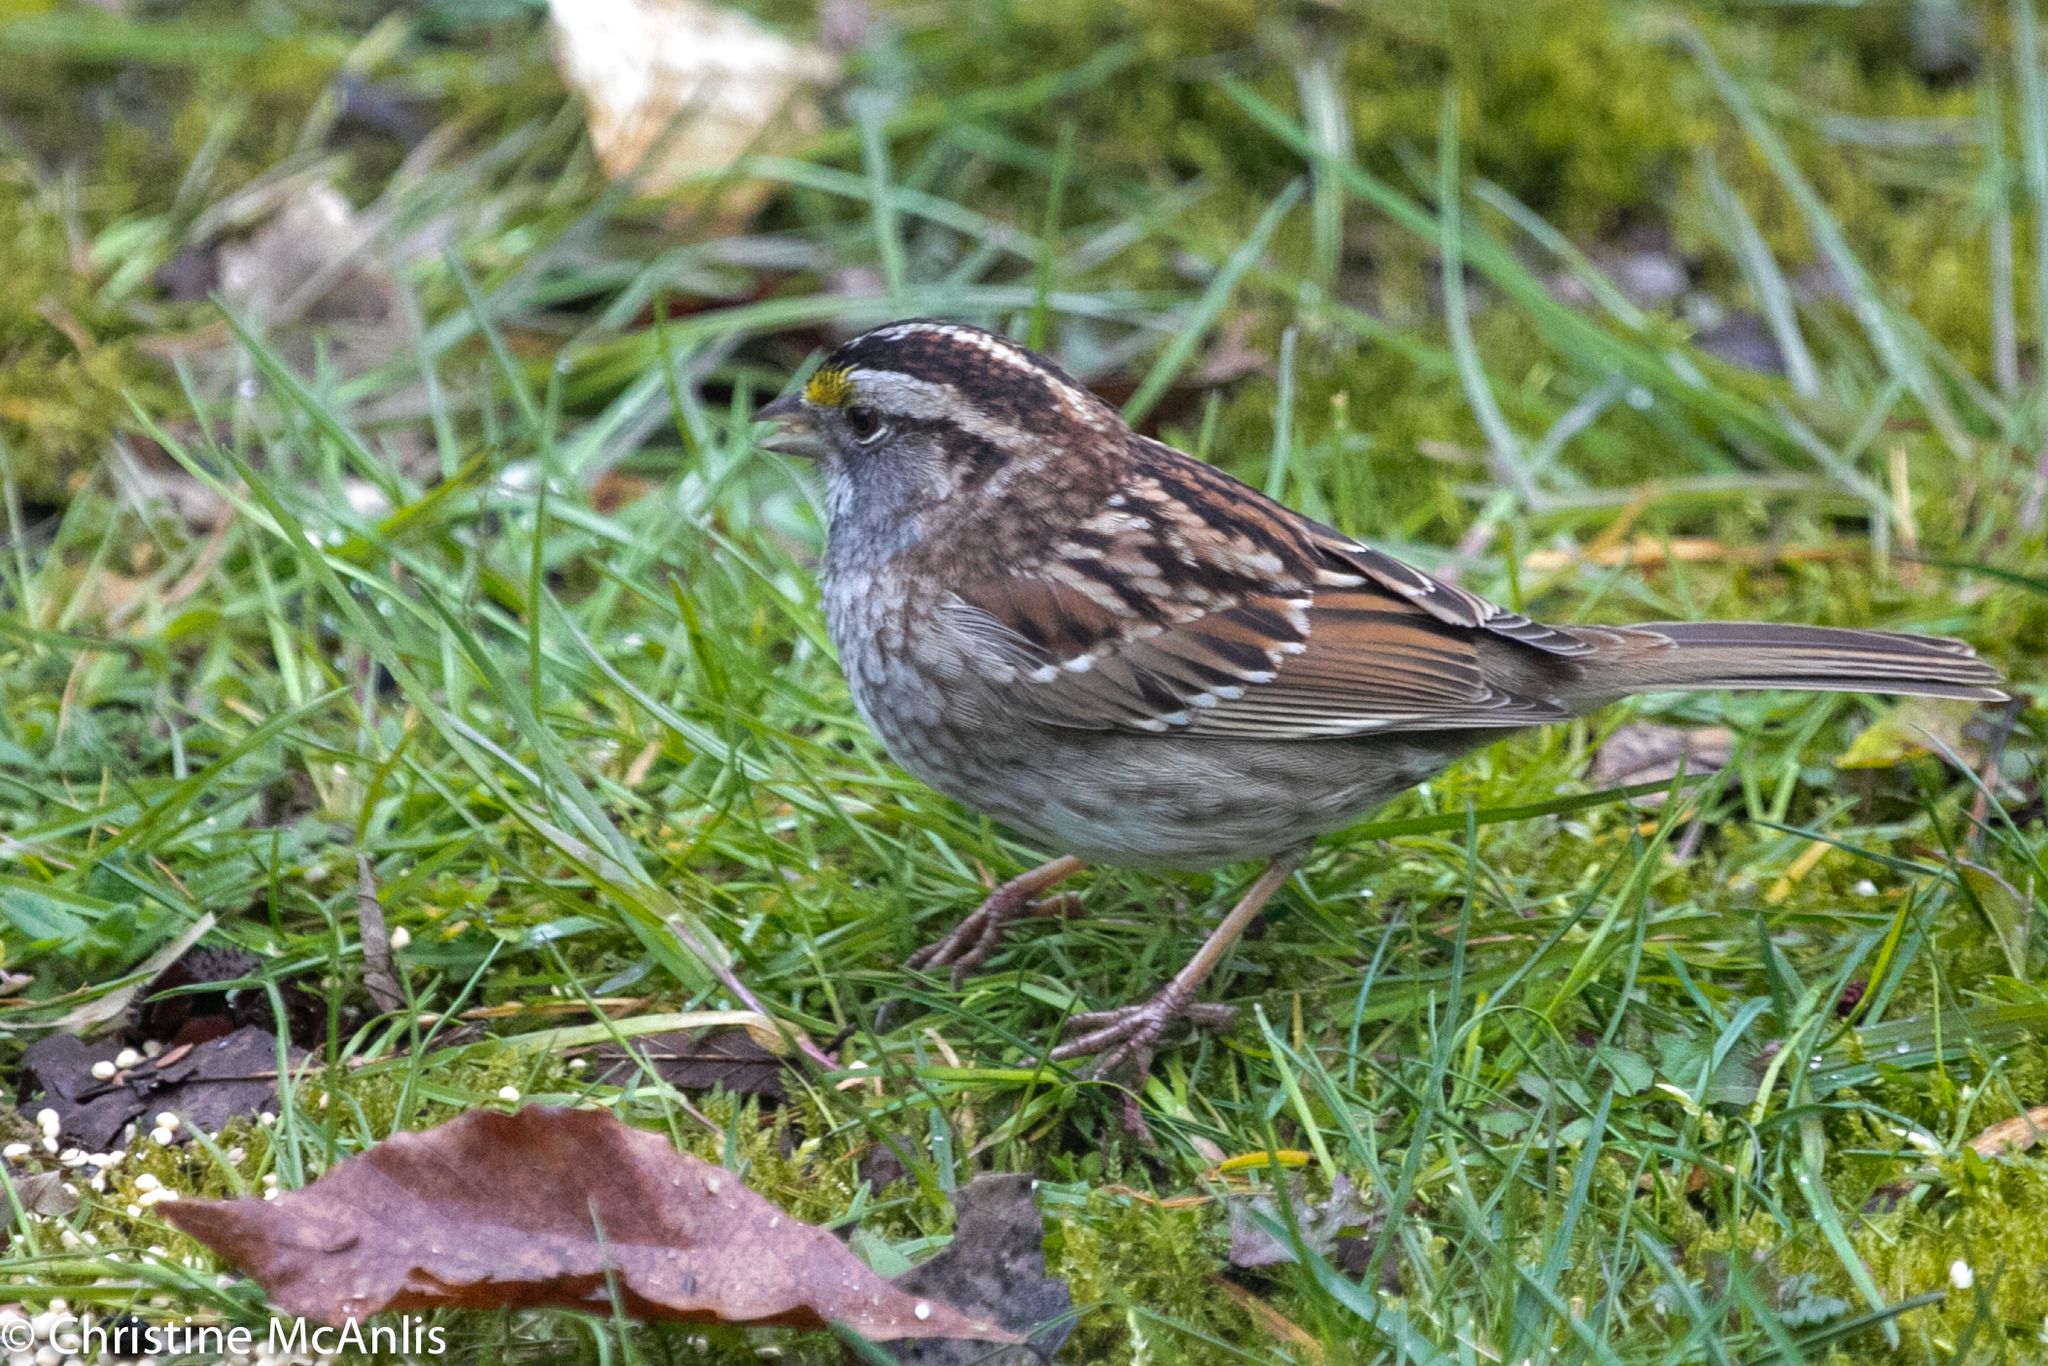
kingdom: Animalia
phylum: Chordata
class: Aves
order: Passeriformes
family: Passerellidae
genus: Zonotrichia
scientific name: Zonotrichia albicollis
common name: White-throated sparrow
